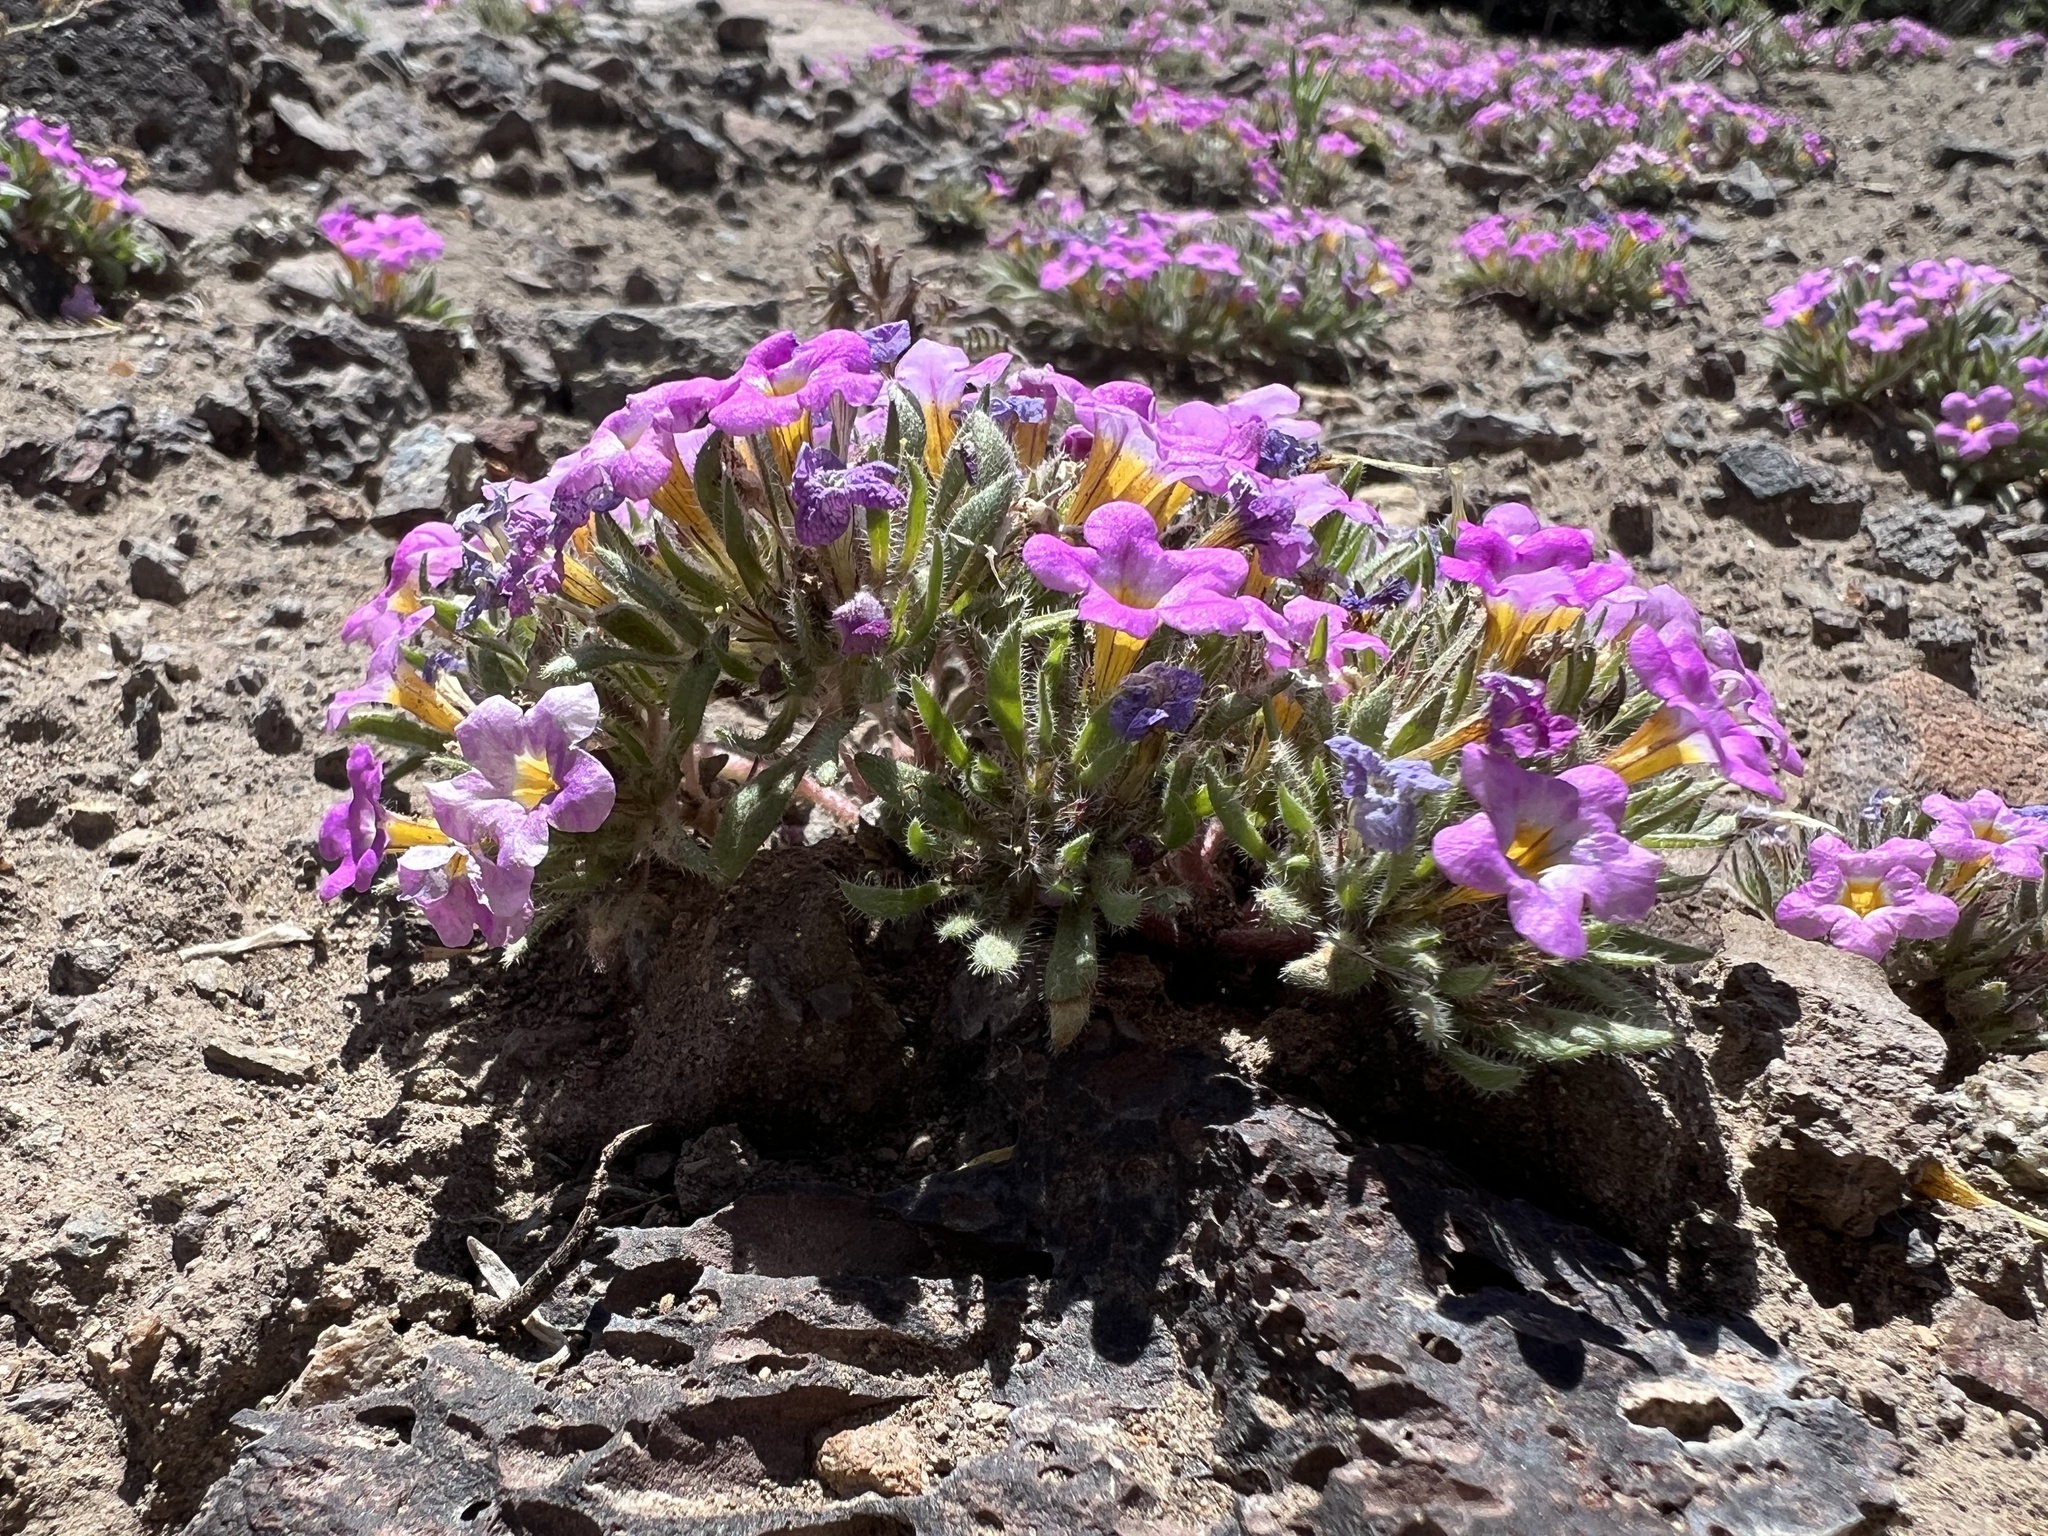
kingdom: Plantae
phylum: Tracheophyta
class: Magnoliopsida
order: Boraginales
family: Namaceae
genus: Nama
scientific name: Nama aretioides
